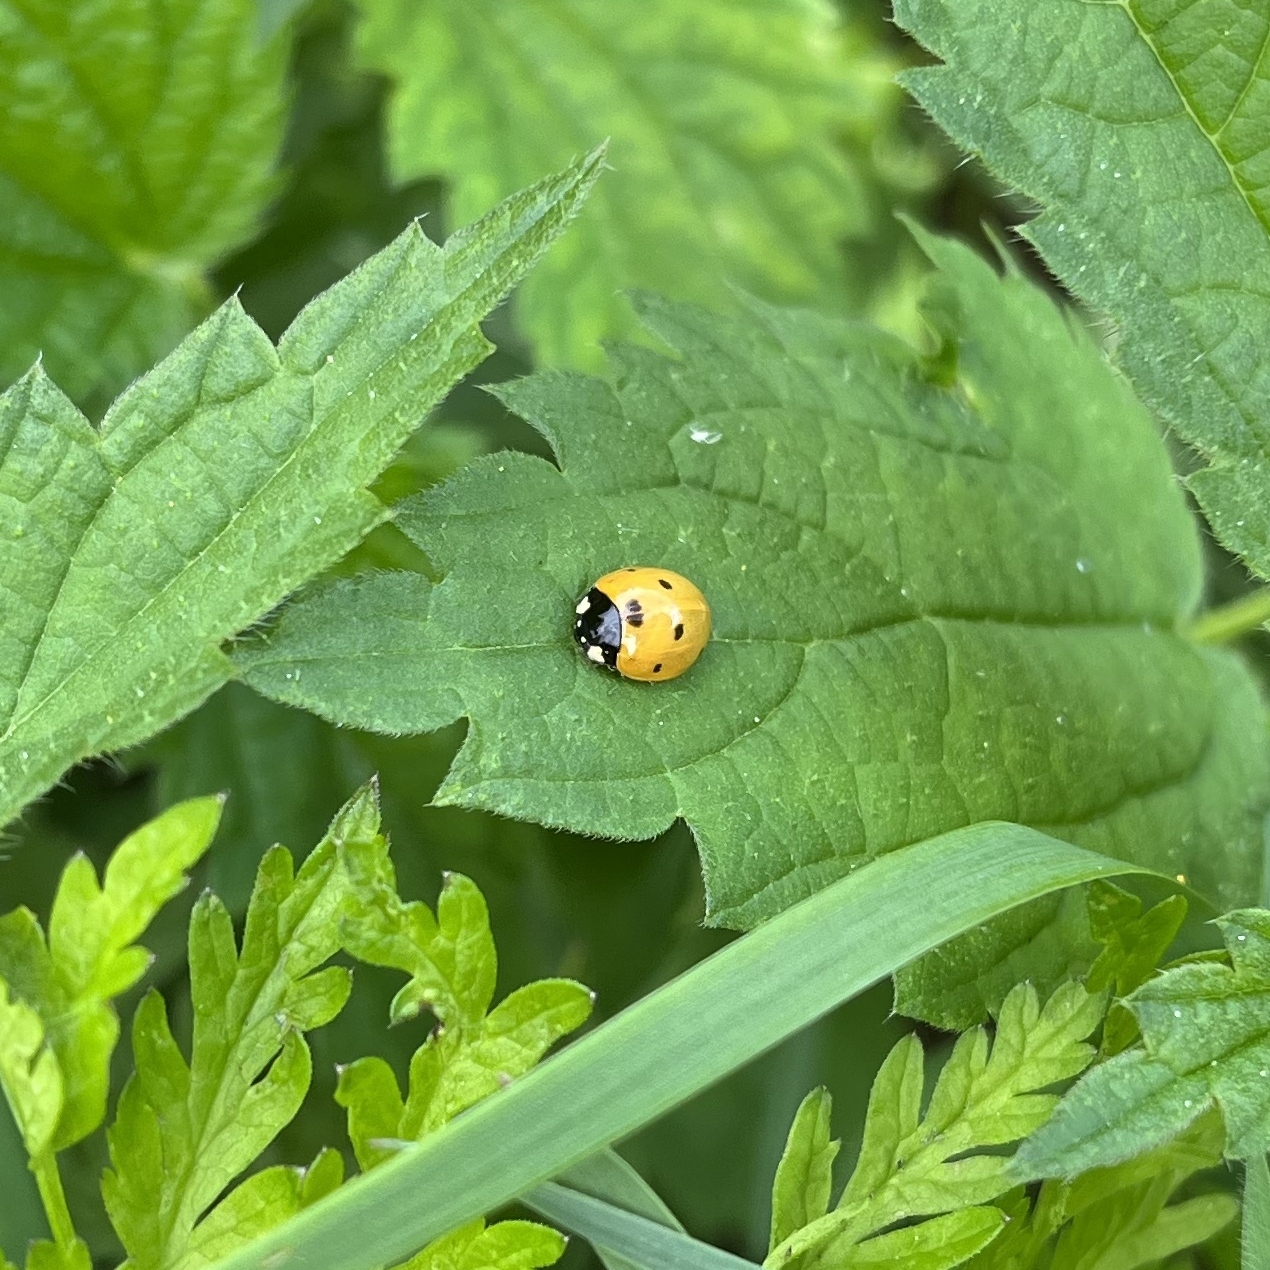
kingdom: Animalia
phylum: Arthropoda
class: Insecta
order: Coleoptera
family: Coccinellidae
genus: Coccinella
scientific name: Coccinella septempunctata
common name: Sevenspotted lady beetle
